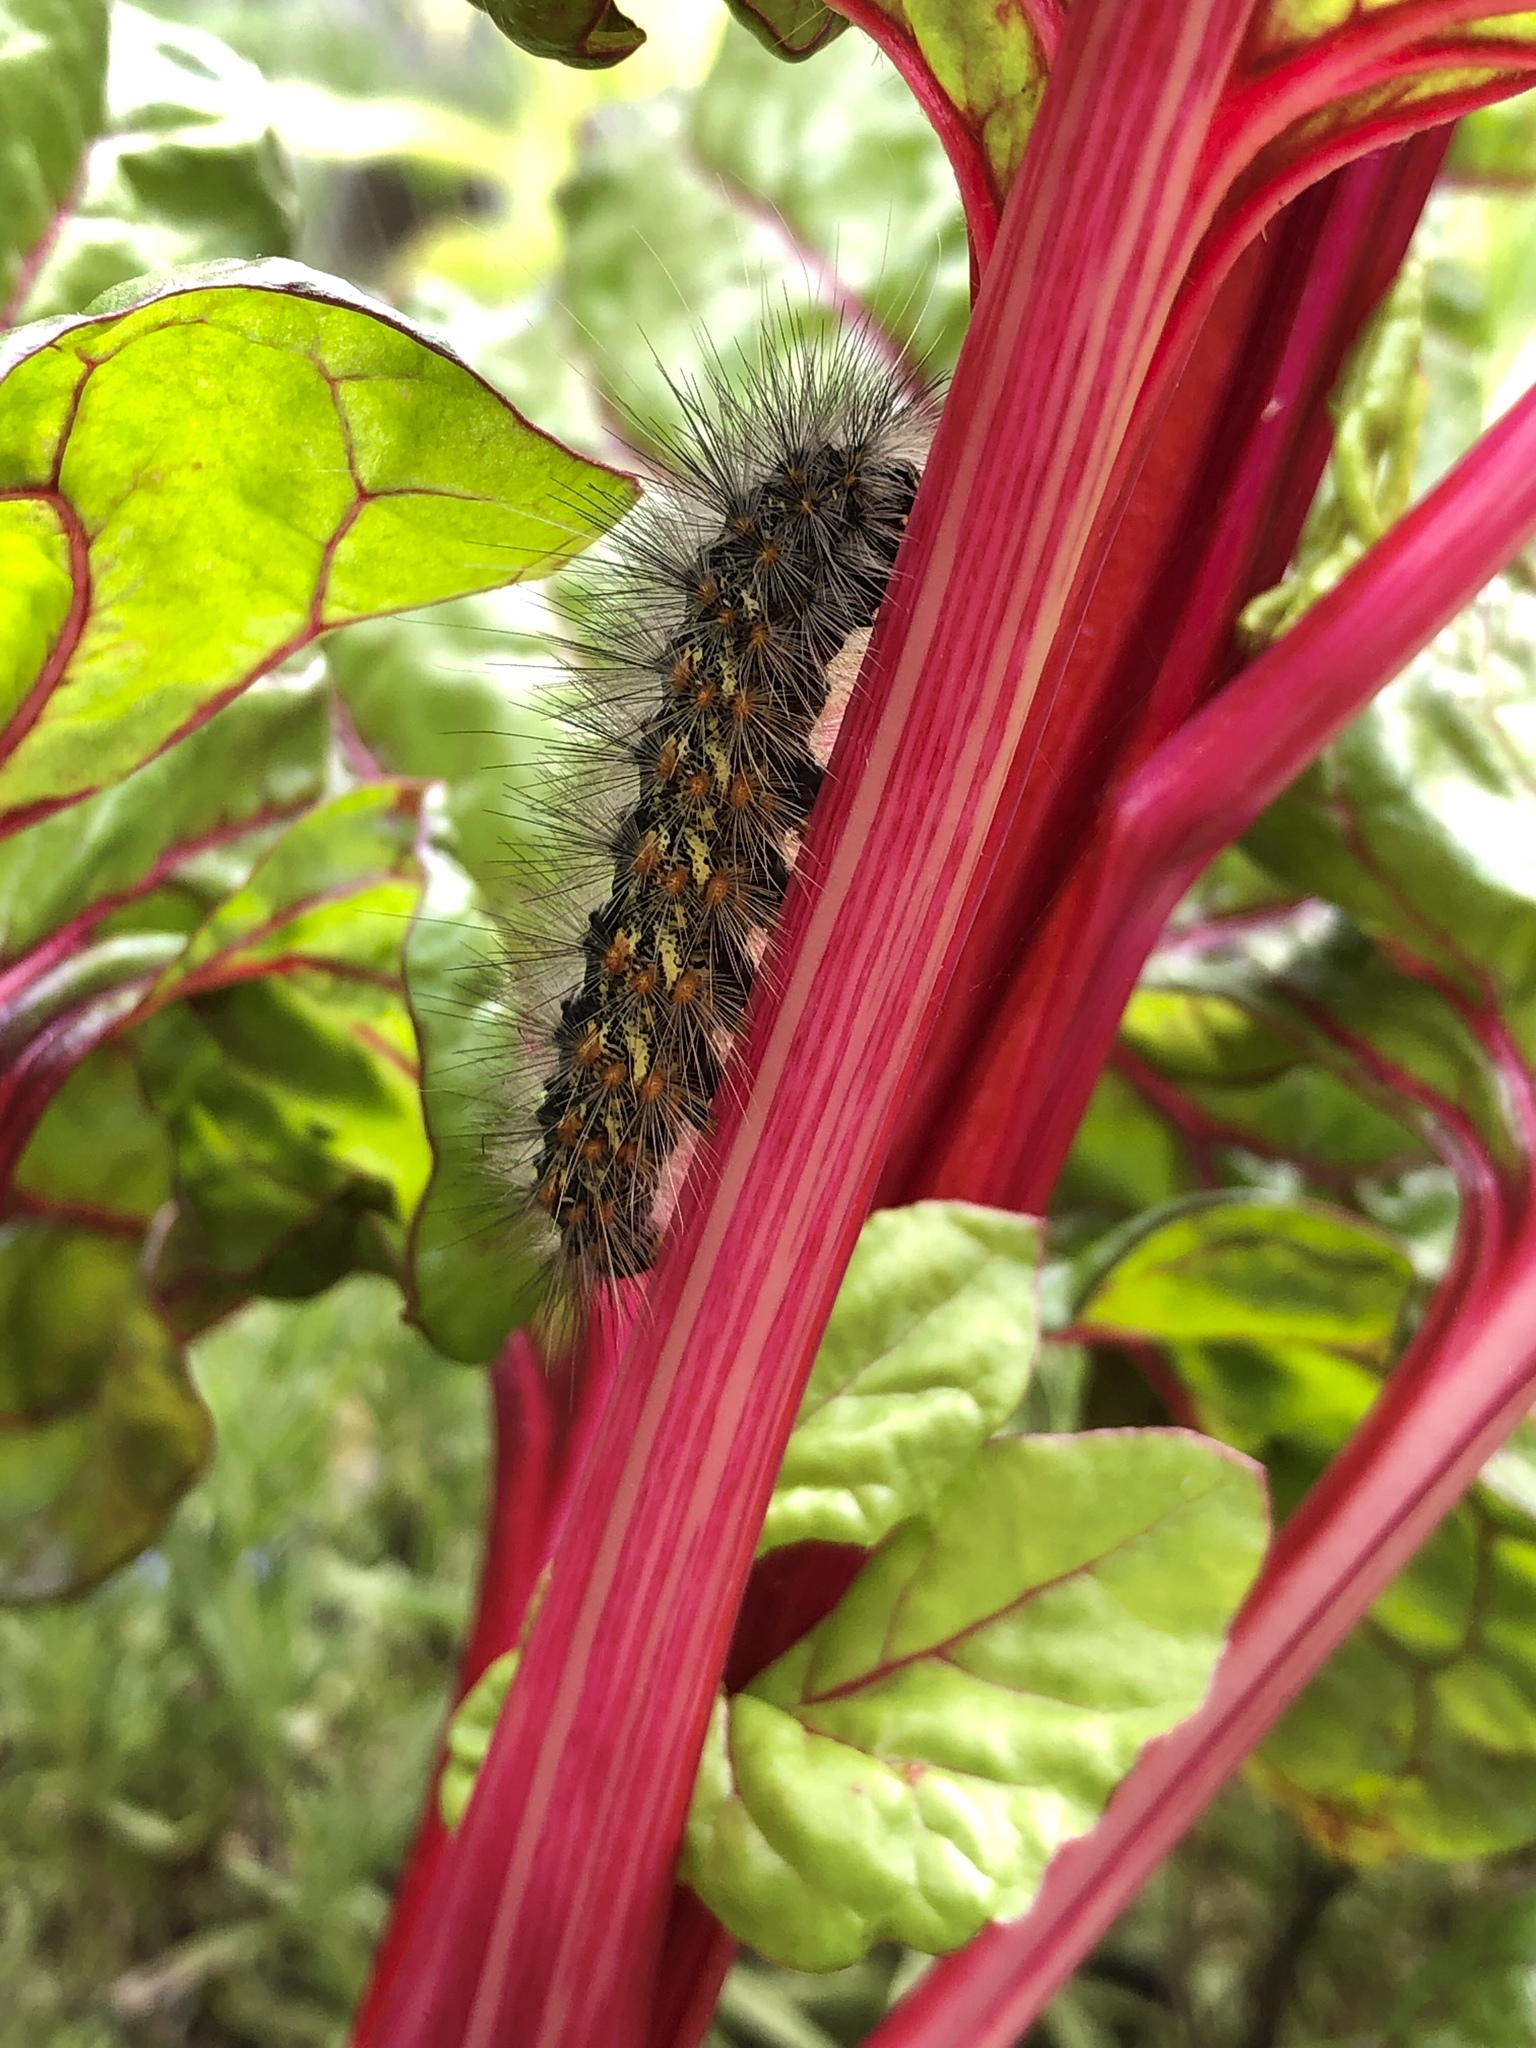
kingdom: Animalia
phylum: Arthropoda
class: Insecta
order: Lepidoptera
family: Erebidae
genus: Estigmene
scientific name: Estigmene acrea
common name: Salt marsh moth
